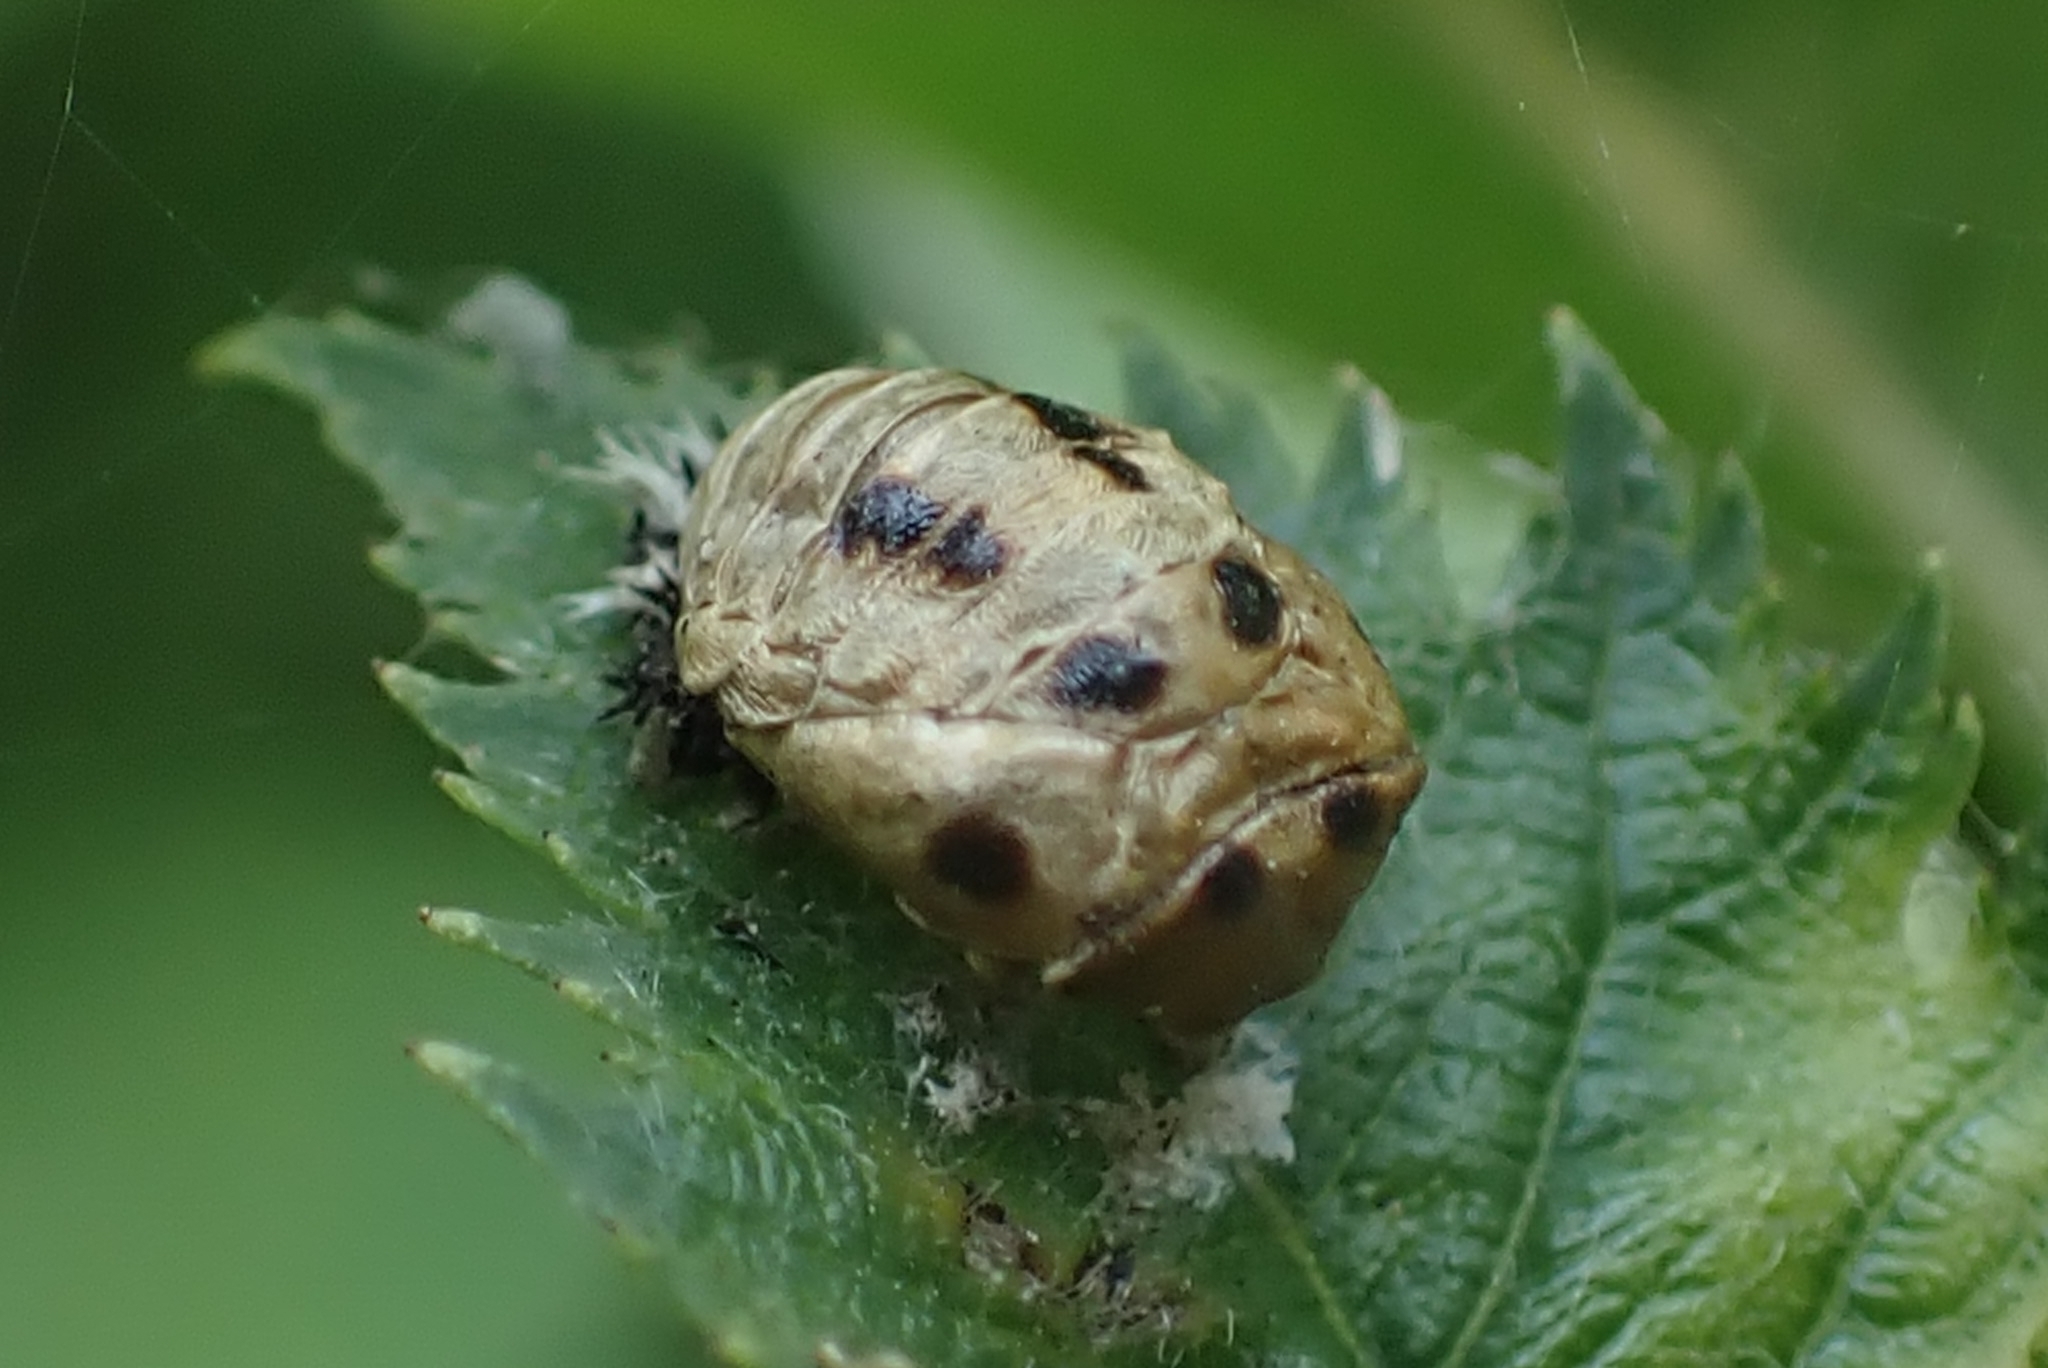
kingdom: Animalia
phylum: Arthropoda
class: Insecta
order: Coleoptera
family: Coccinellidae
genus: Harmonia
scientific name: Harmonia axyridis
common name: Harlequin ladybird
